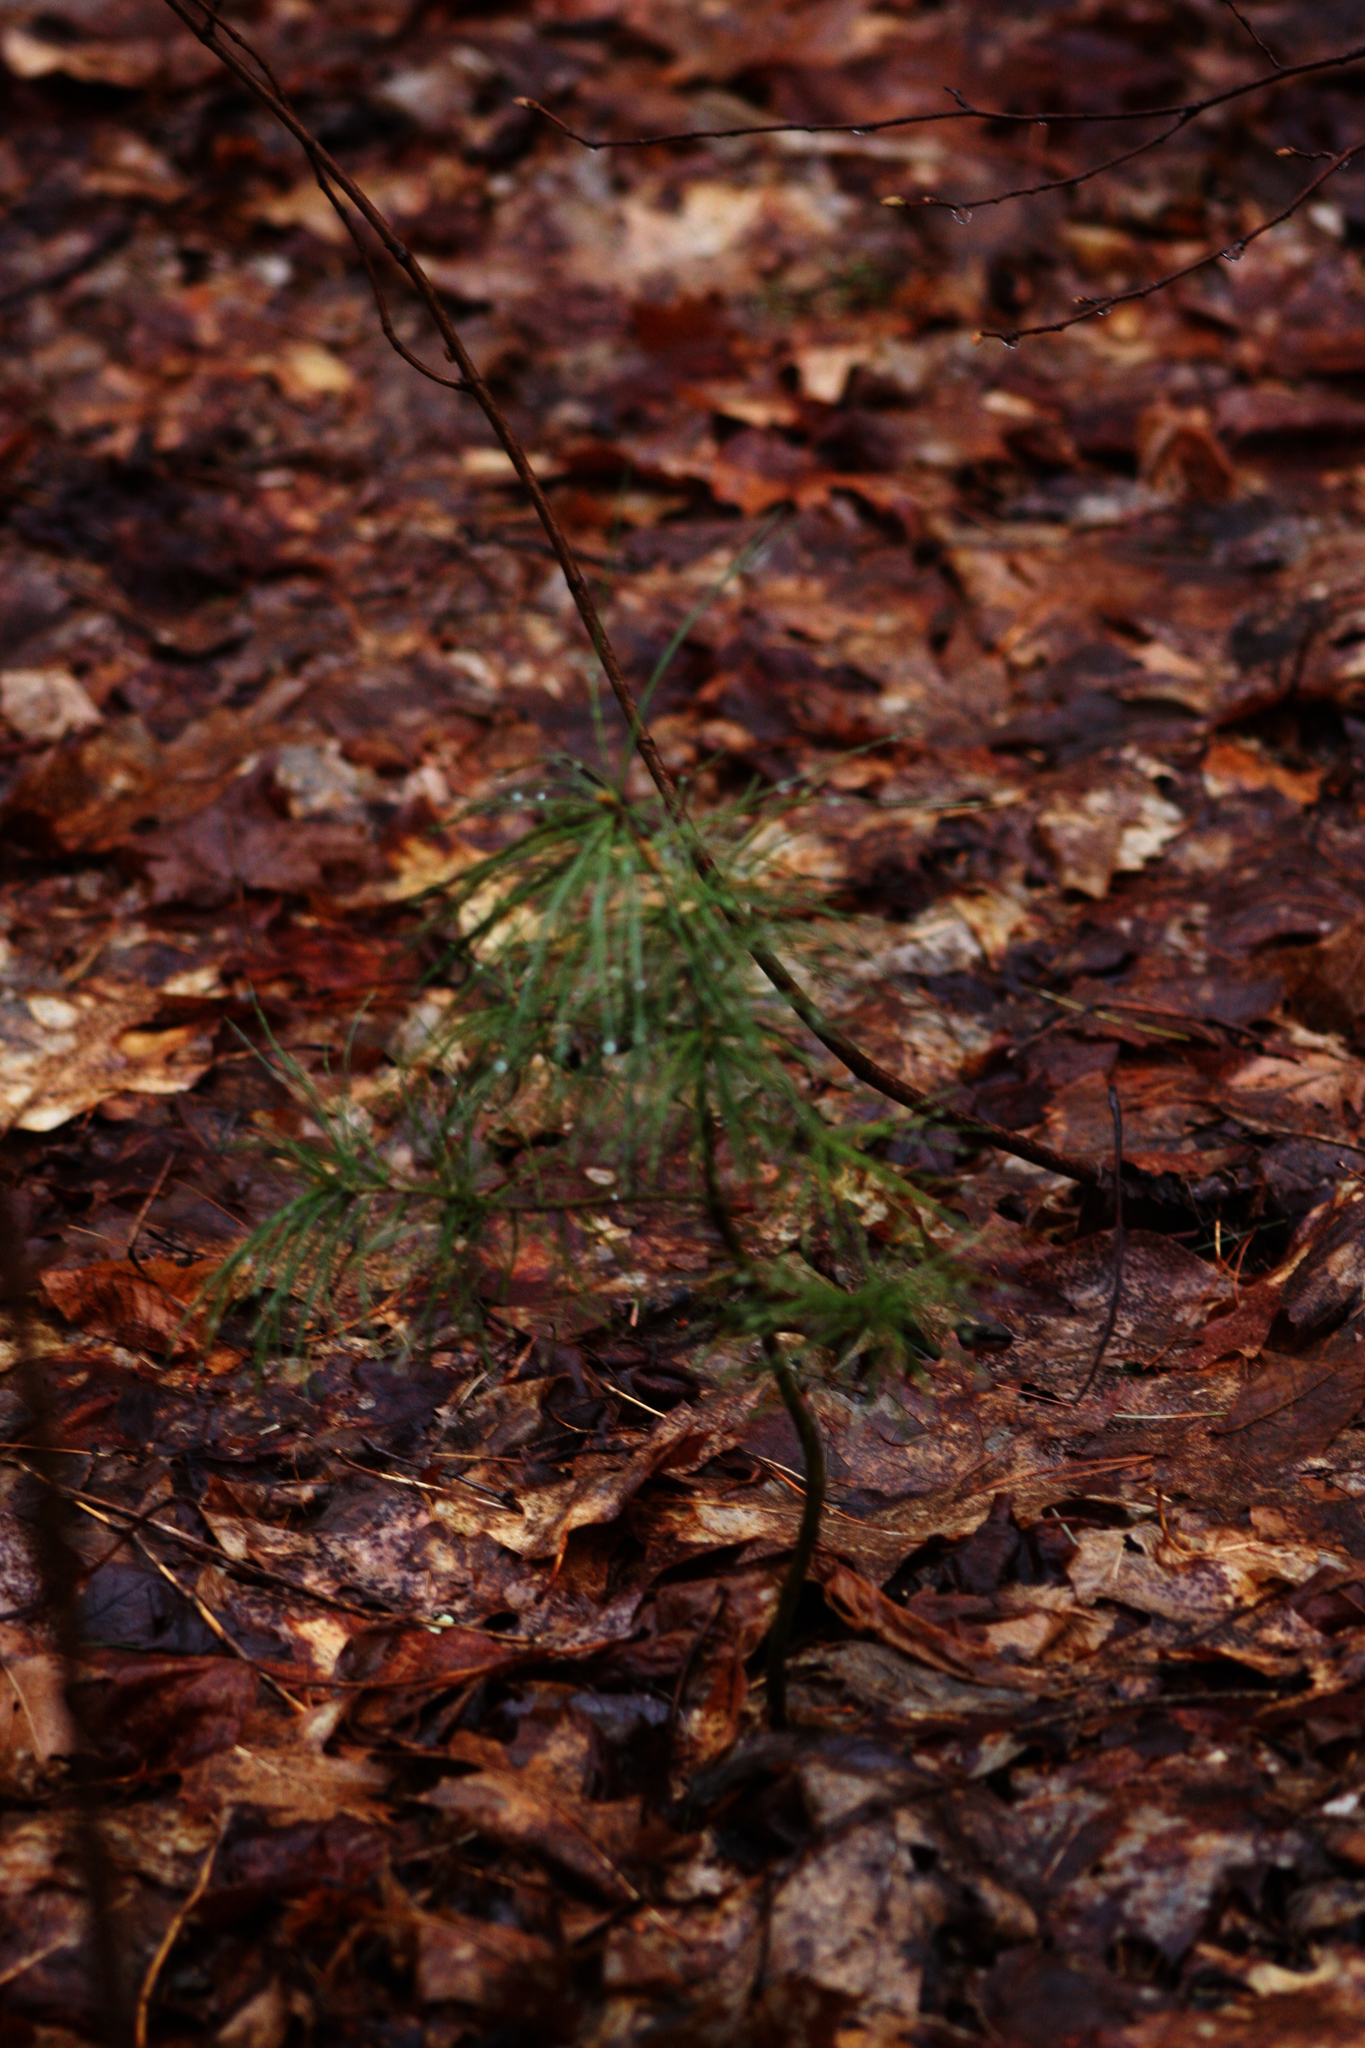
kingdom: Plantae
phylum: Tracheophyta
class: Pinopsida
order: Pinales
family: Pinaceae
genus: Pinus
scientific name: Pinus strobus
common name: Weymouth pine
